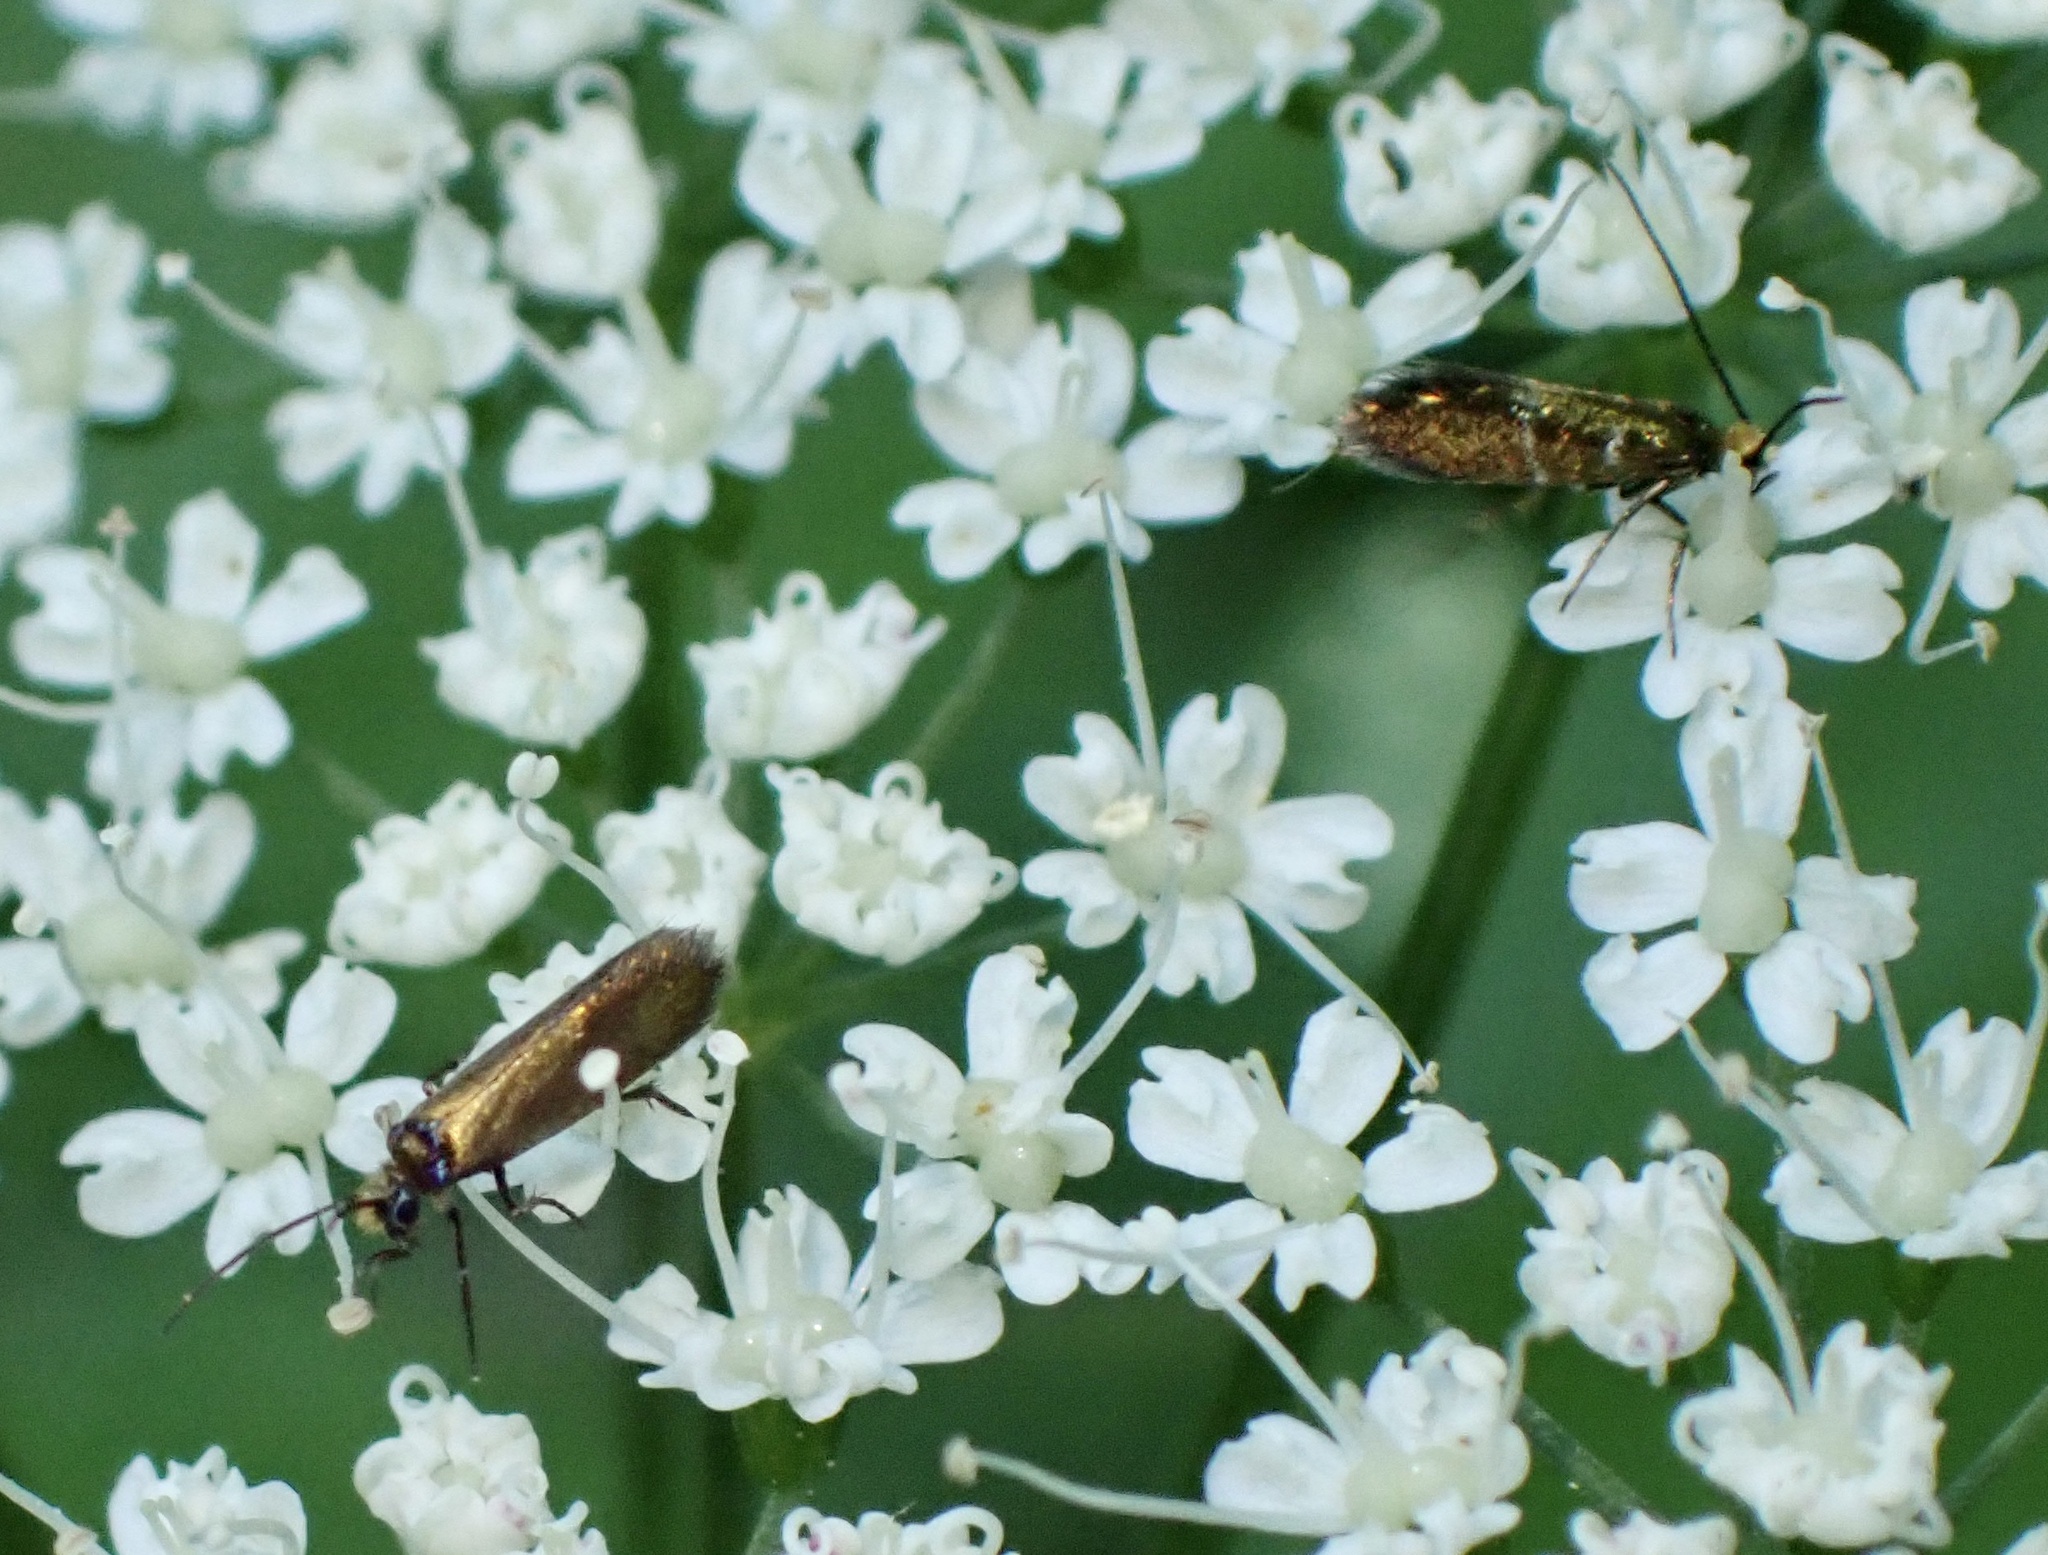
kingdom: Animalia
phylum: Arthropoda
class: Insecta
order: Lepidoptera
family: Micropterigidae
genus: Micropterix
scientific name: Micropterix aruncella
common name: White-barred gold
